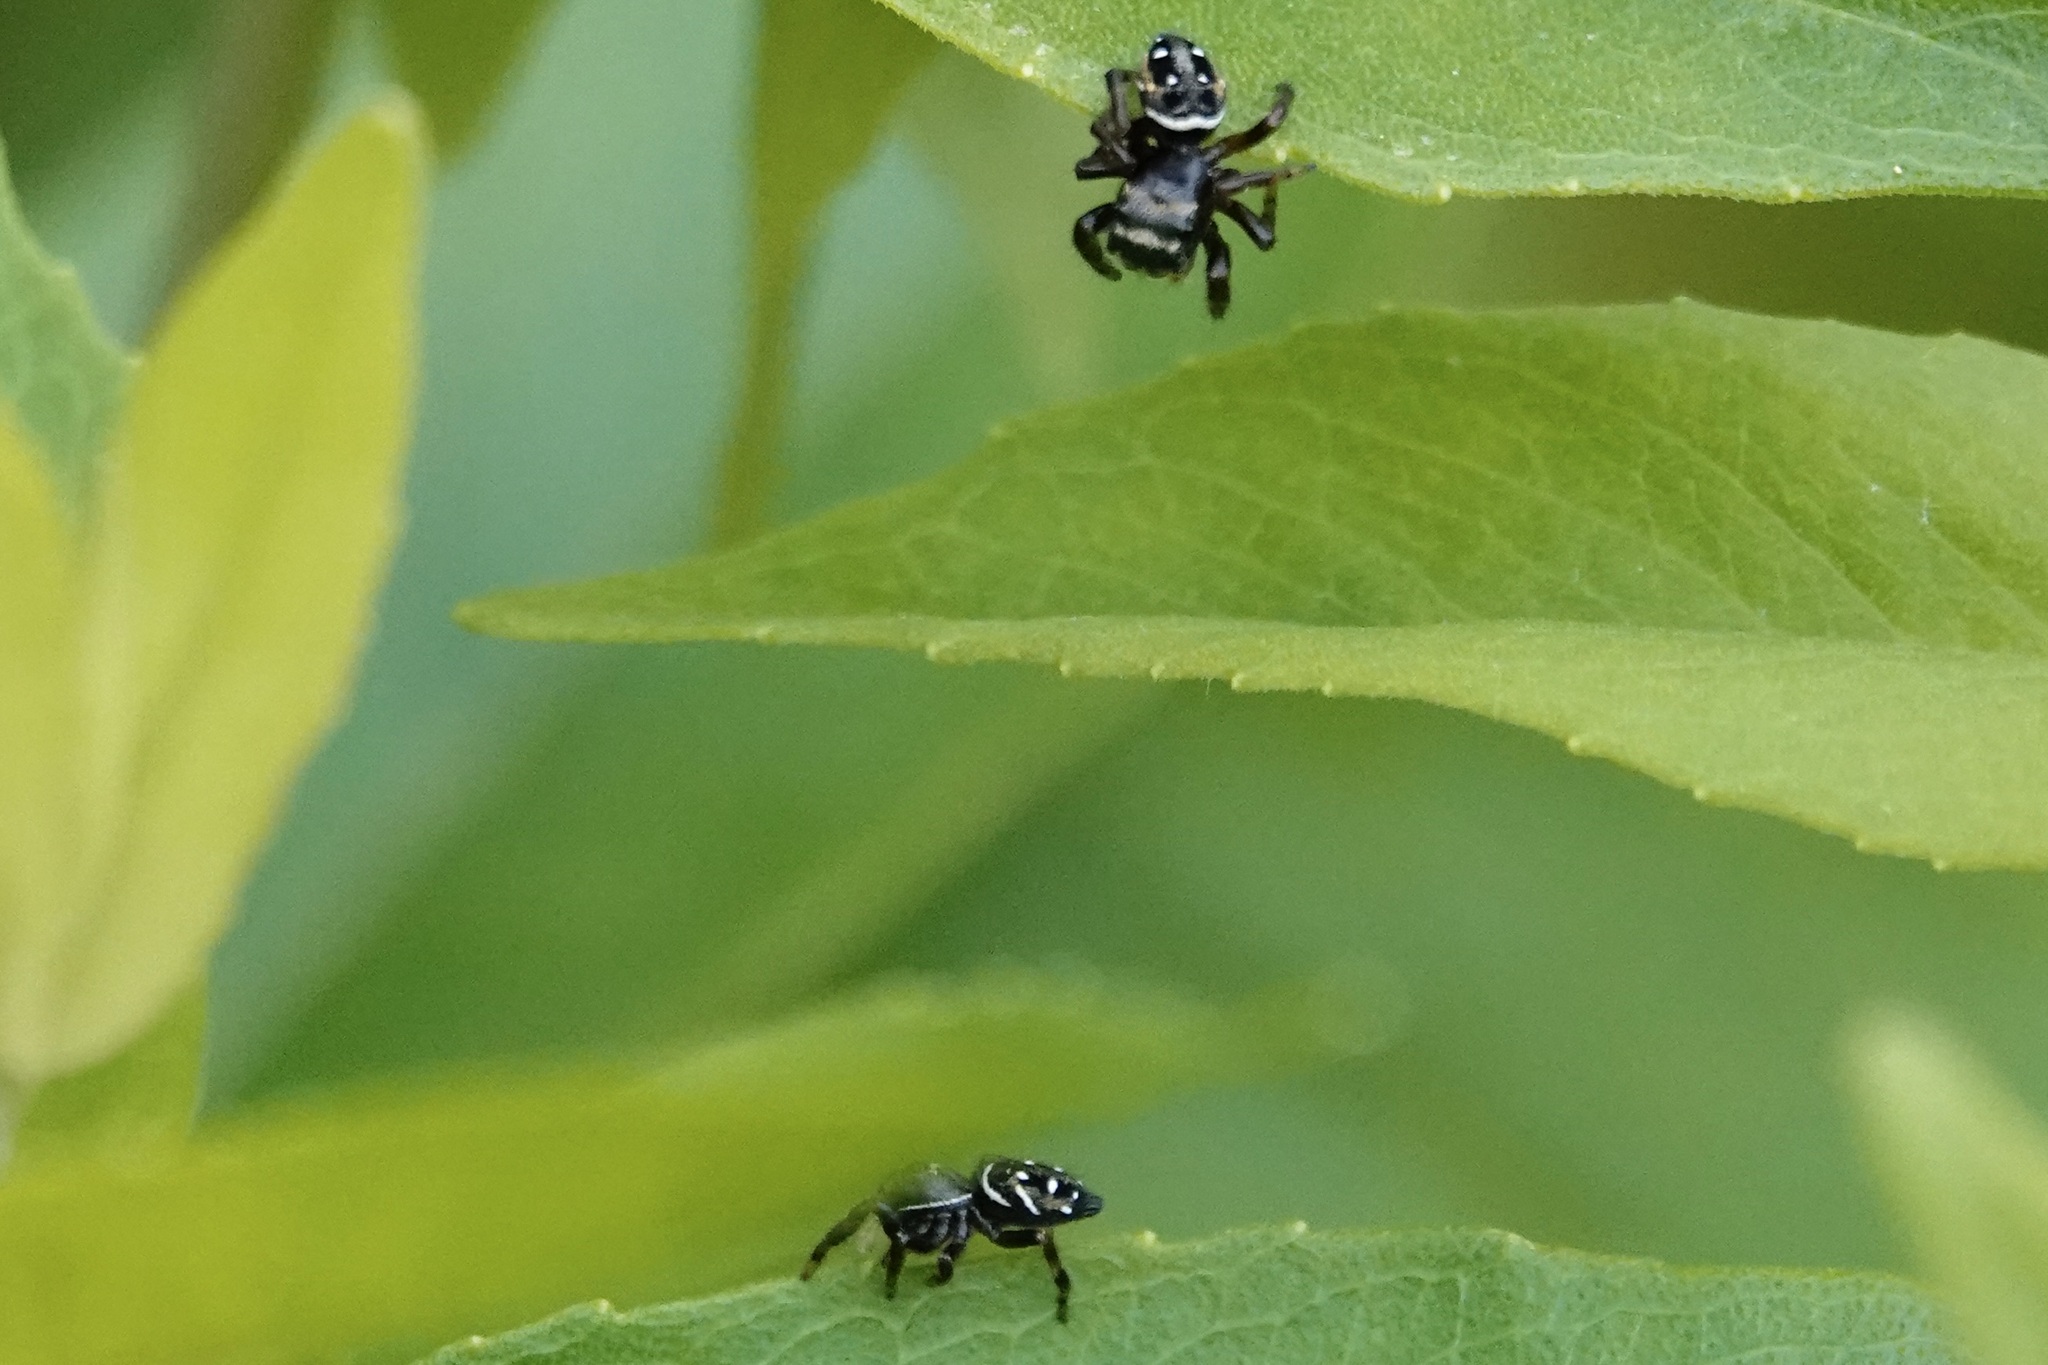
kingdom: Animalia
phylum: Arthropoda
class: Arachnida
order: Araneae
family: Salticidae
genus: Phidippus
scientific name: Phidippus clarus
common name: Brilliant jumping spider
